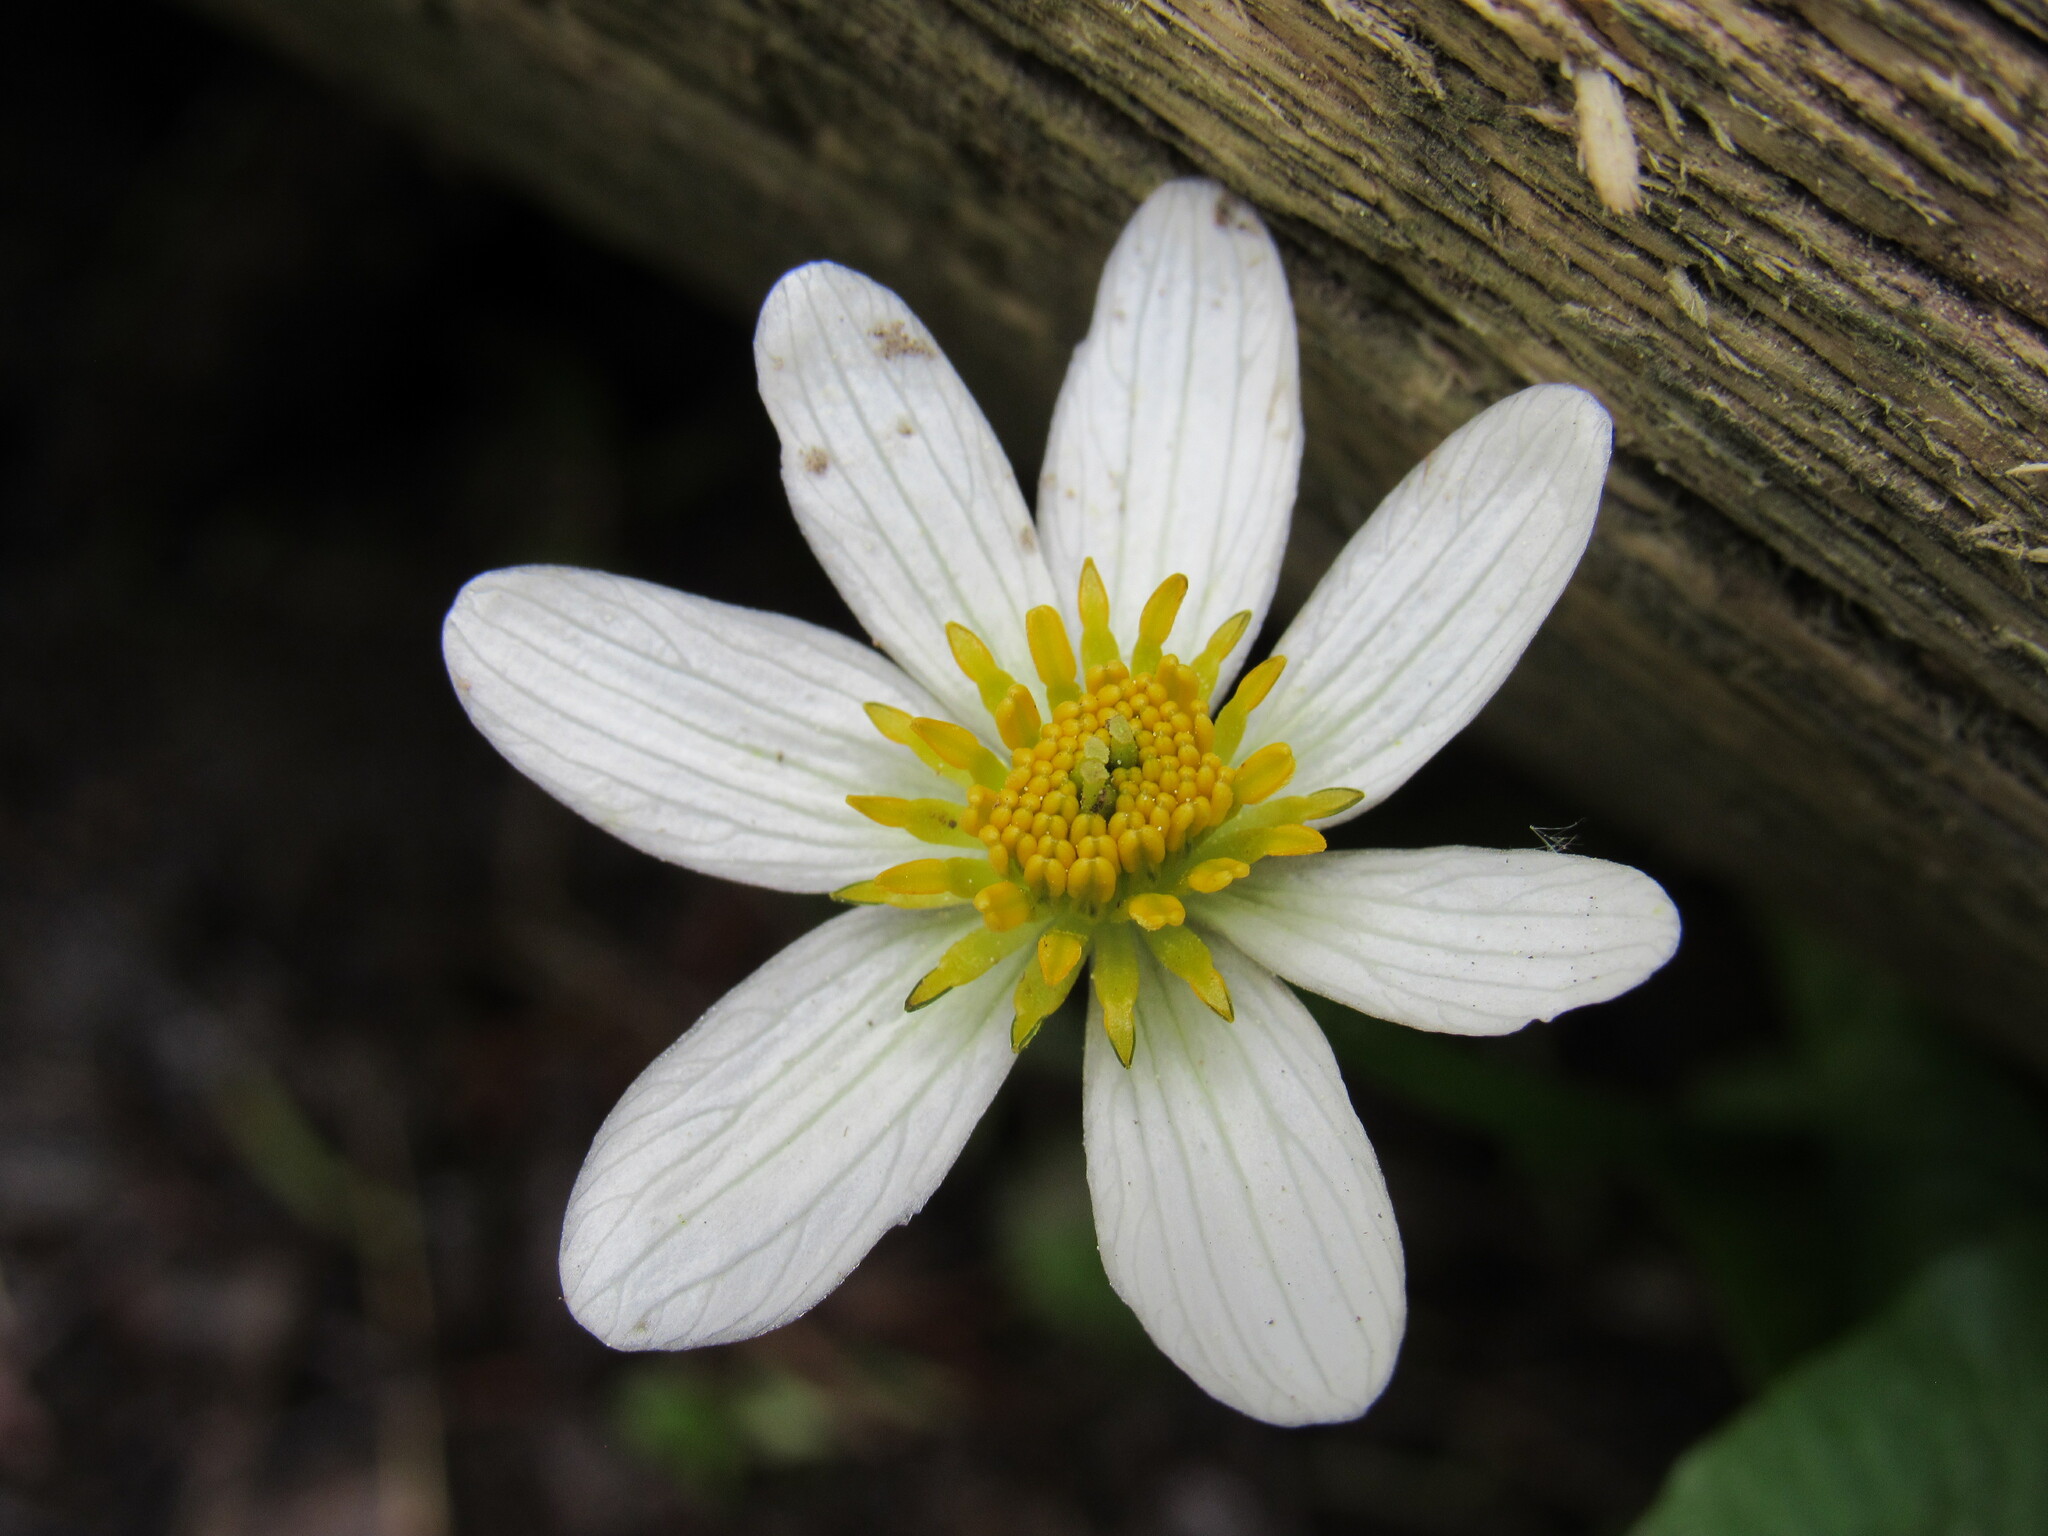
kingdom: Plantae
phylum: Tracheophyta
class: Magnoliopsida
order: Ranunculales
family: Ranunculaceae
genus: Caltha
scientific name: Caltha leptosepala
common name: Elkslip
